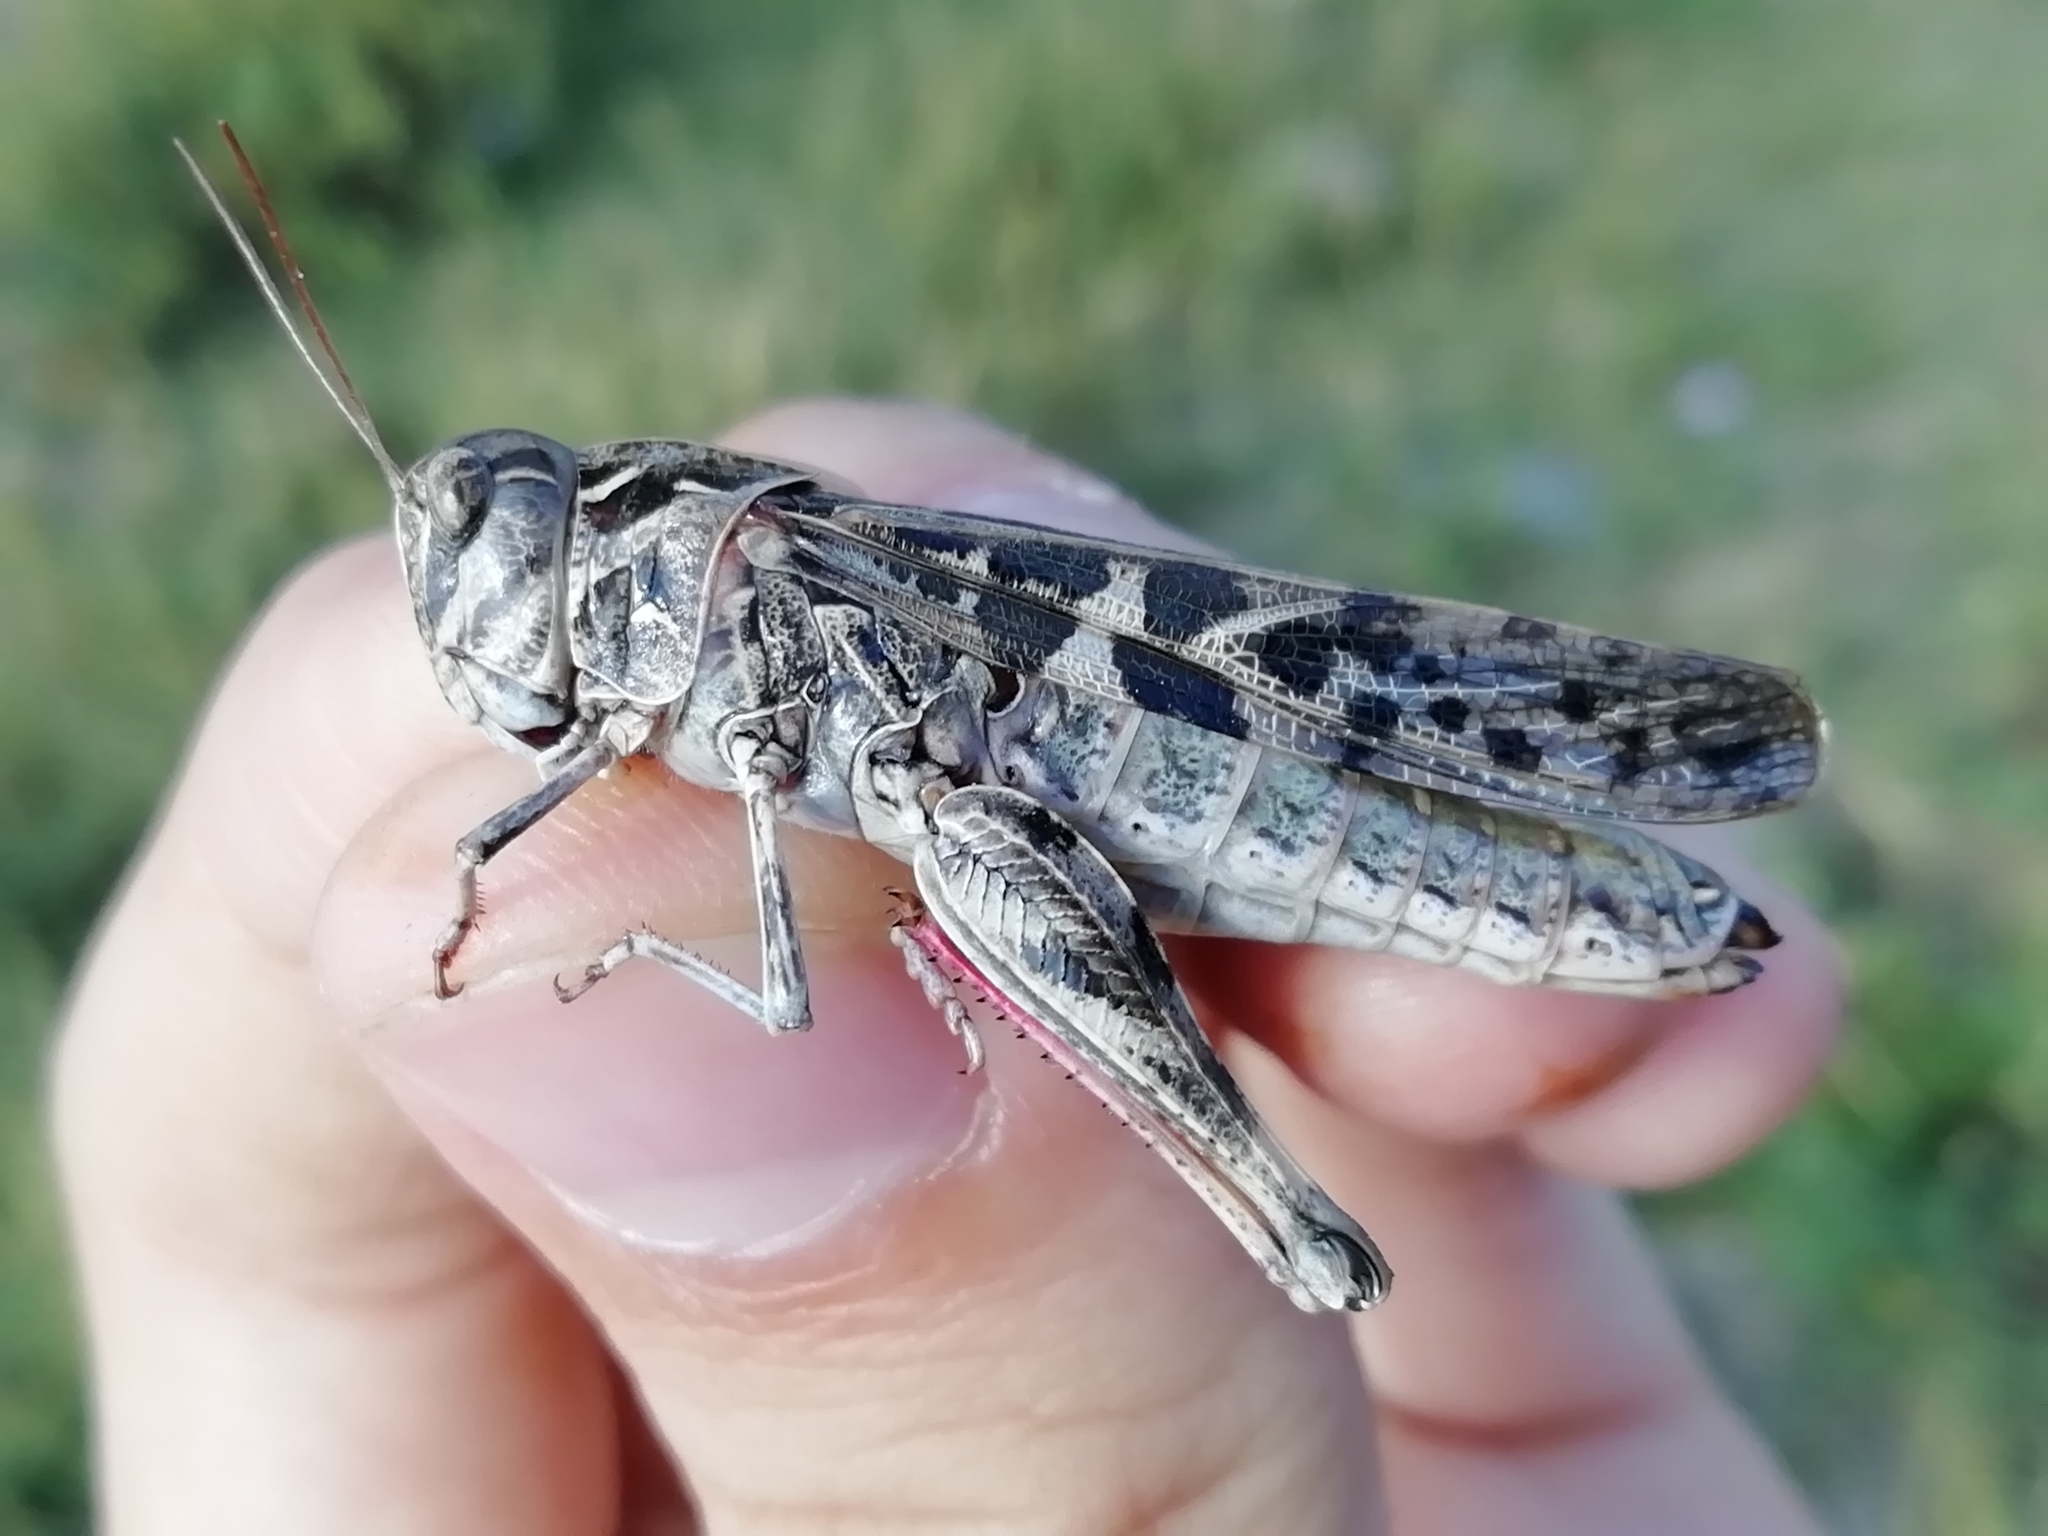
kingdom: Animalia
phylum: Arthropoda
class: Insecta
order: Orthoptera
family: Acrididae
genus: Oedaleus
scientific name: Oedaleus decorus
